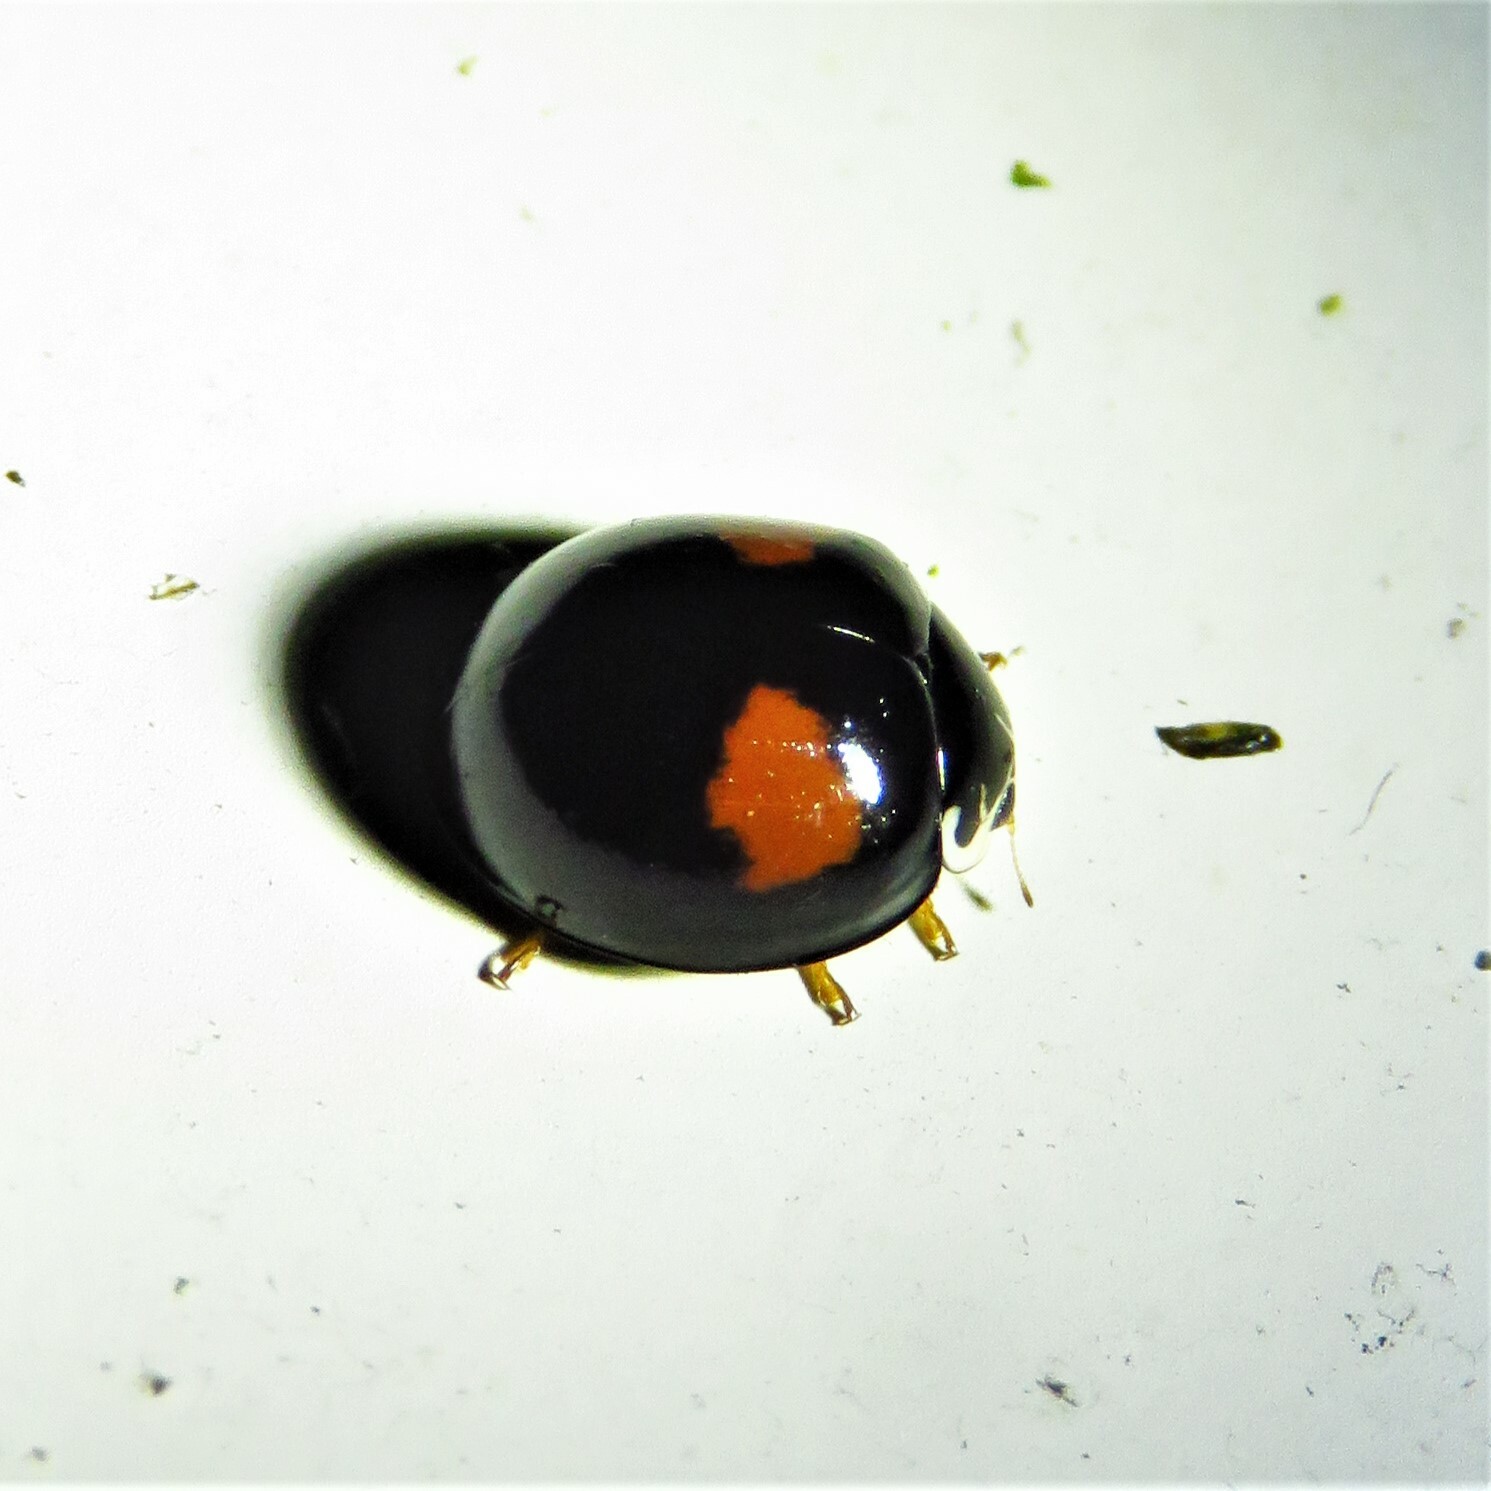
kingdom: Animalia
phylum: Arthropoda
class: Insecta
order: Coleoptera
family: Coccinellidae
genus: Olla
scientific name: Olla v-nigrum
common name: Ashy gray lady beetle
